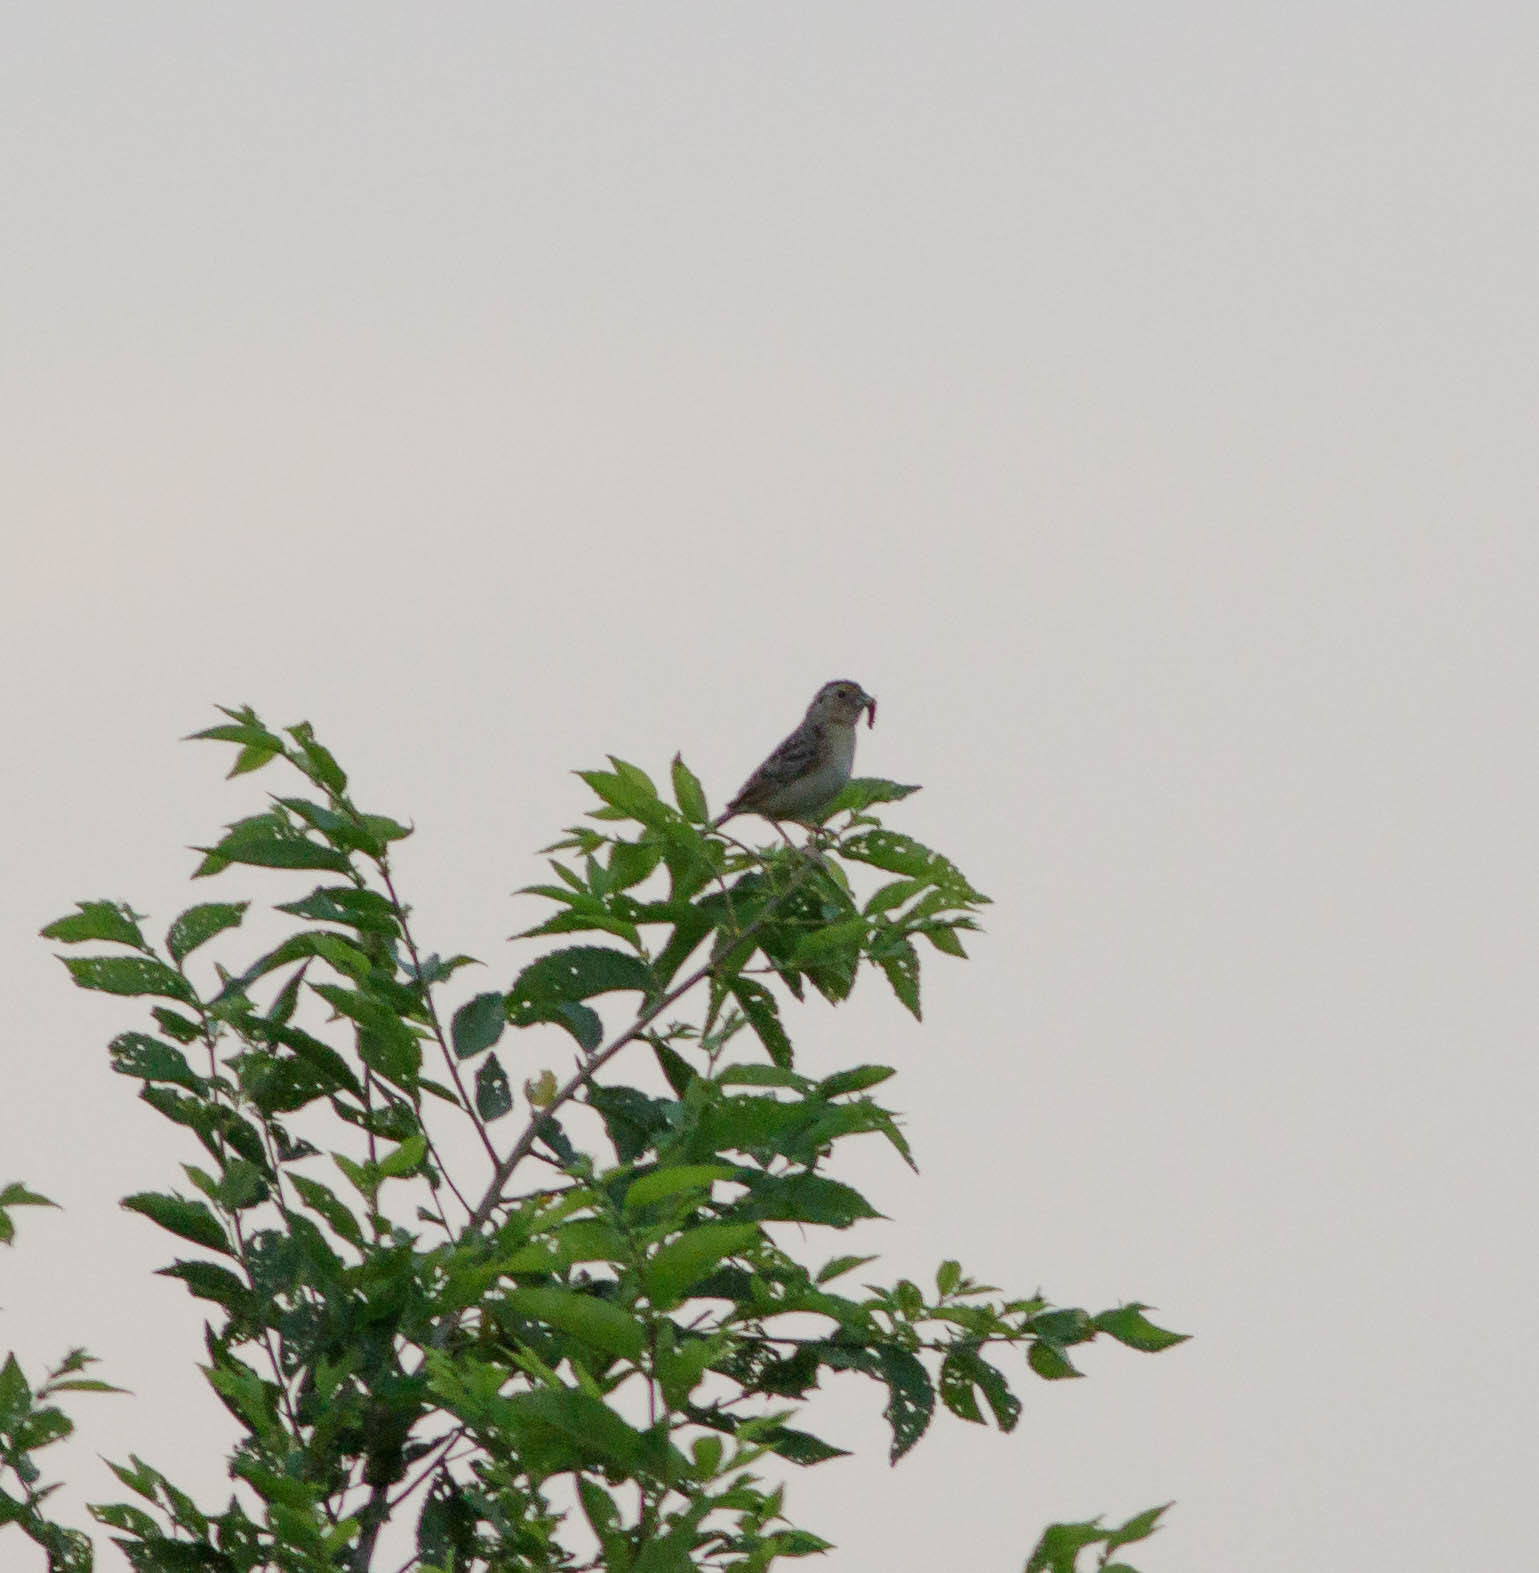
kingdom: Animalia
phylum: Chordata
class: Aves
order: Passeriformes
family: Passerellidae
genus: Ammodramus
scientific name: Ammodramus savannarum
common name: Grasshopper sparrow
